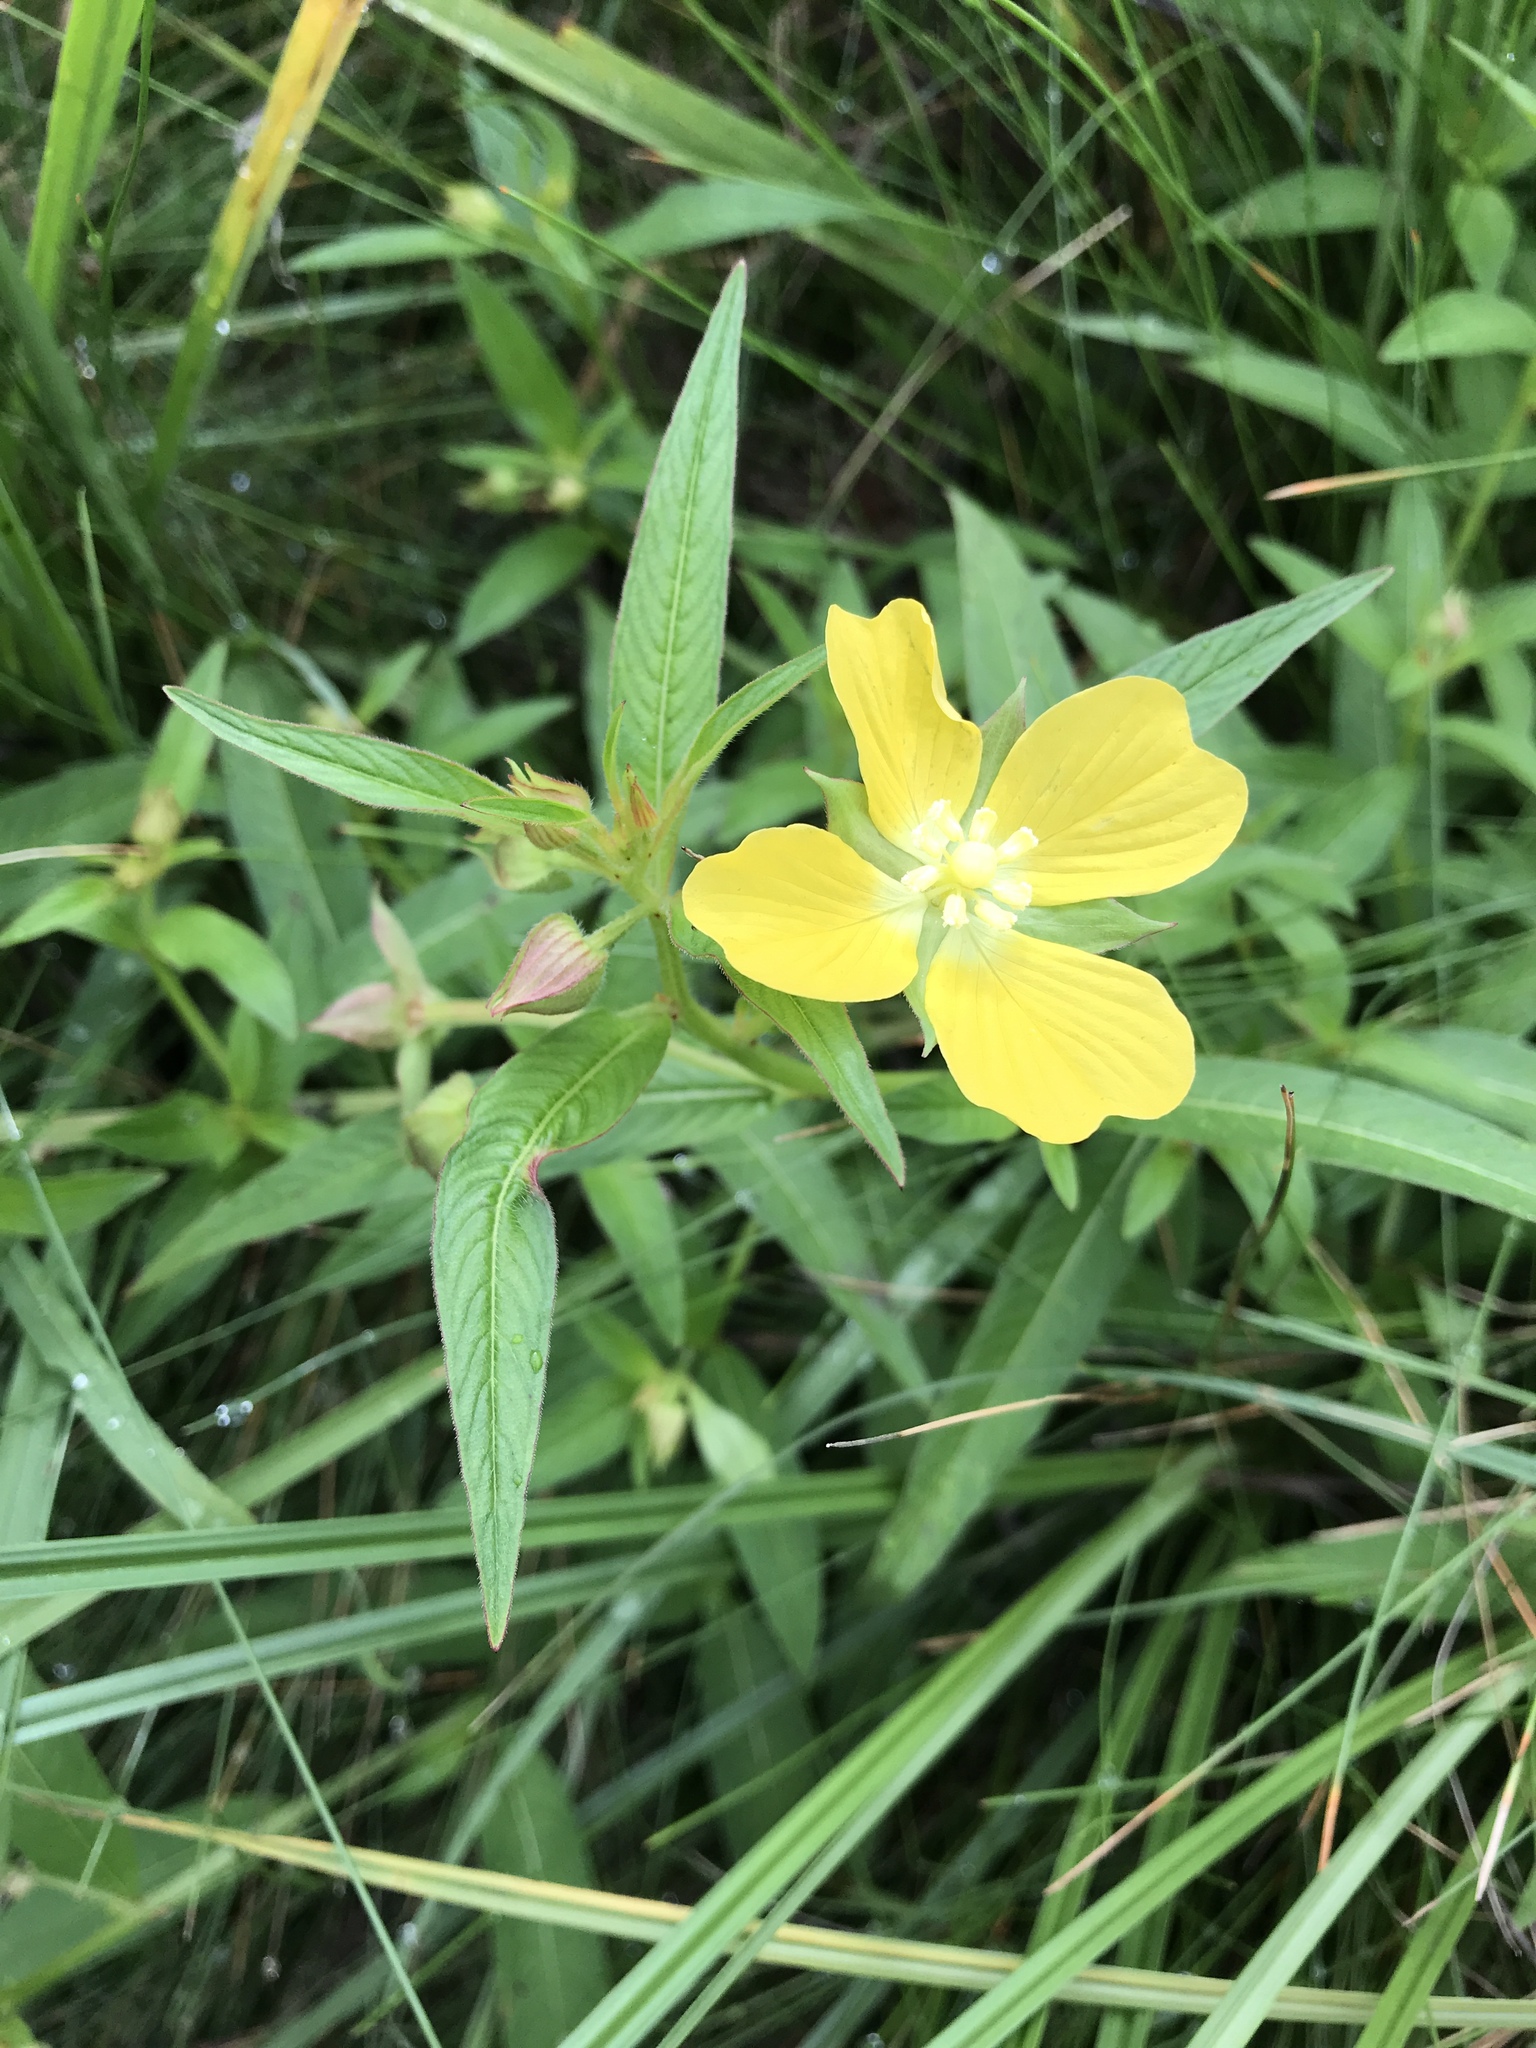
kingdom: Plantae
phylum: Tracheophyta
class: Magnoliopsida
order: Myrtales
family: Onagraceae
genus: Ludwigia
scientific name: Ludwigia octovalvis
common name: Water-primrose
